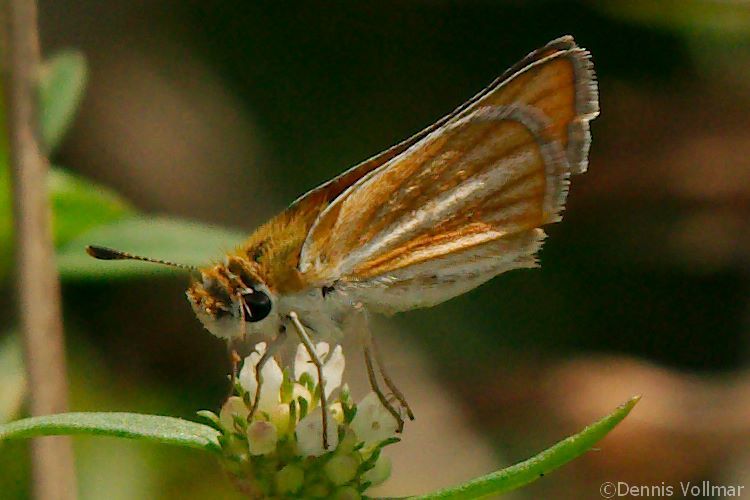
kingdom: Animalia
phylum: Arthropoda
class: Insecta
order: Lepidoptera
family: Hesperiidae
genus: Copaeodes
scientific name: Copaeodes minima
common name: Southern skipperling
